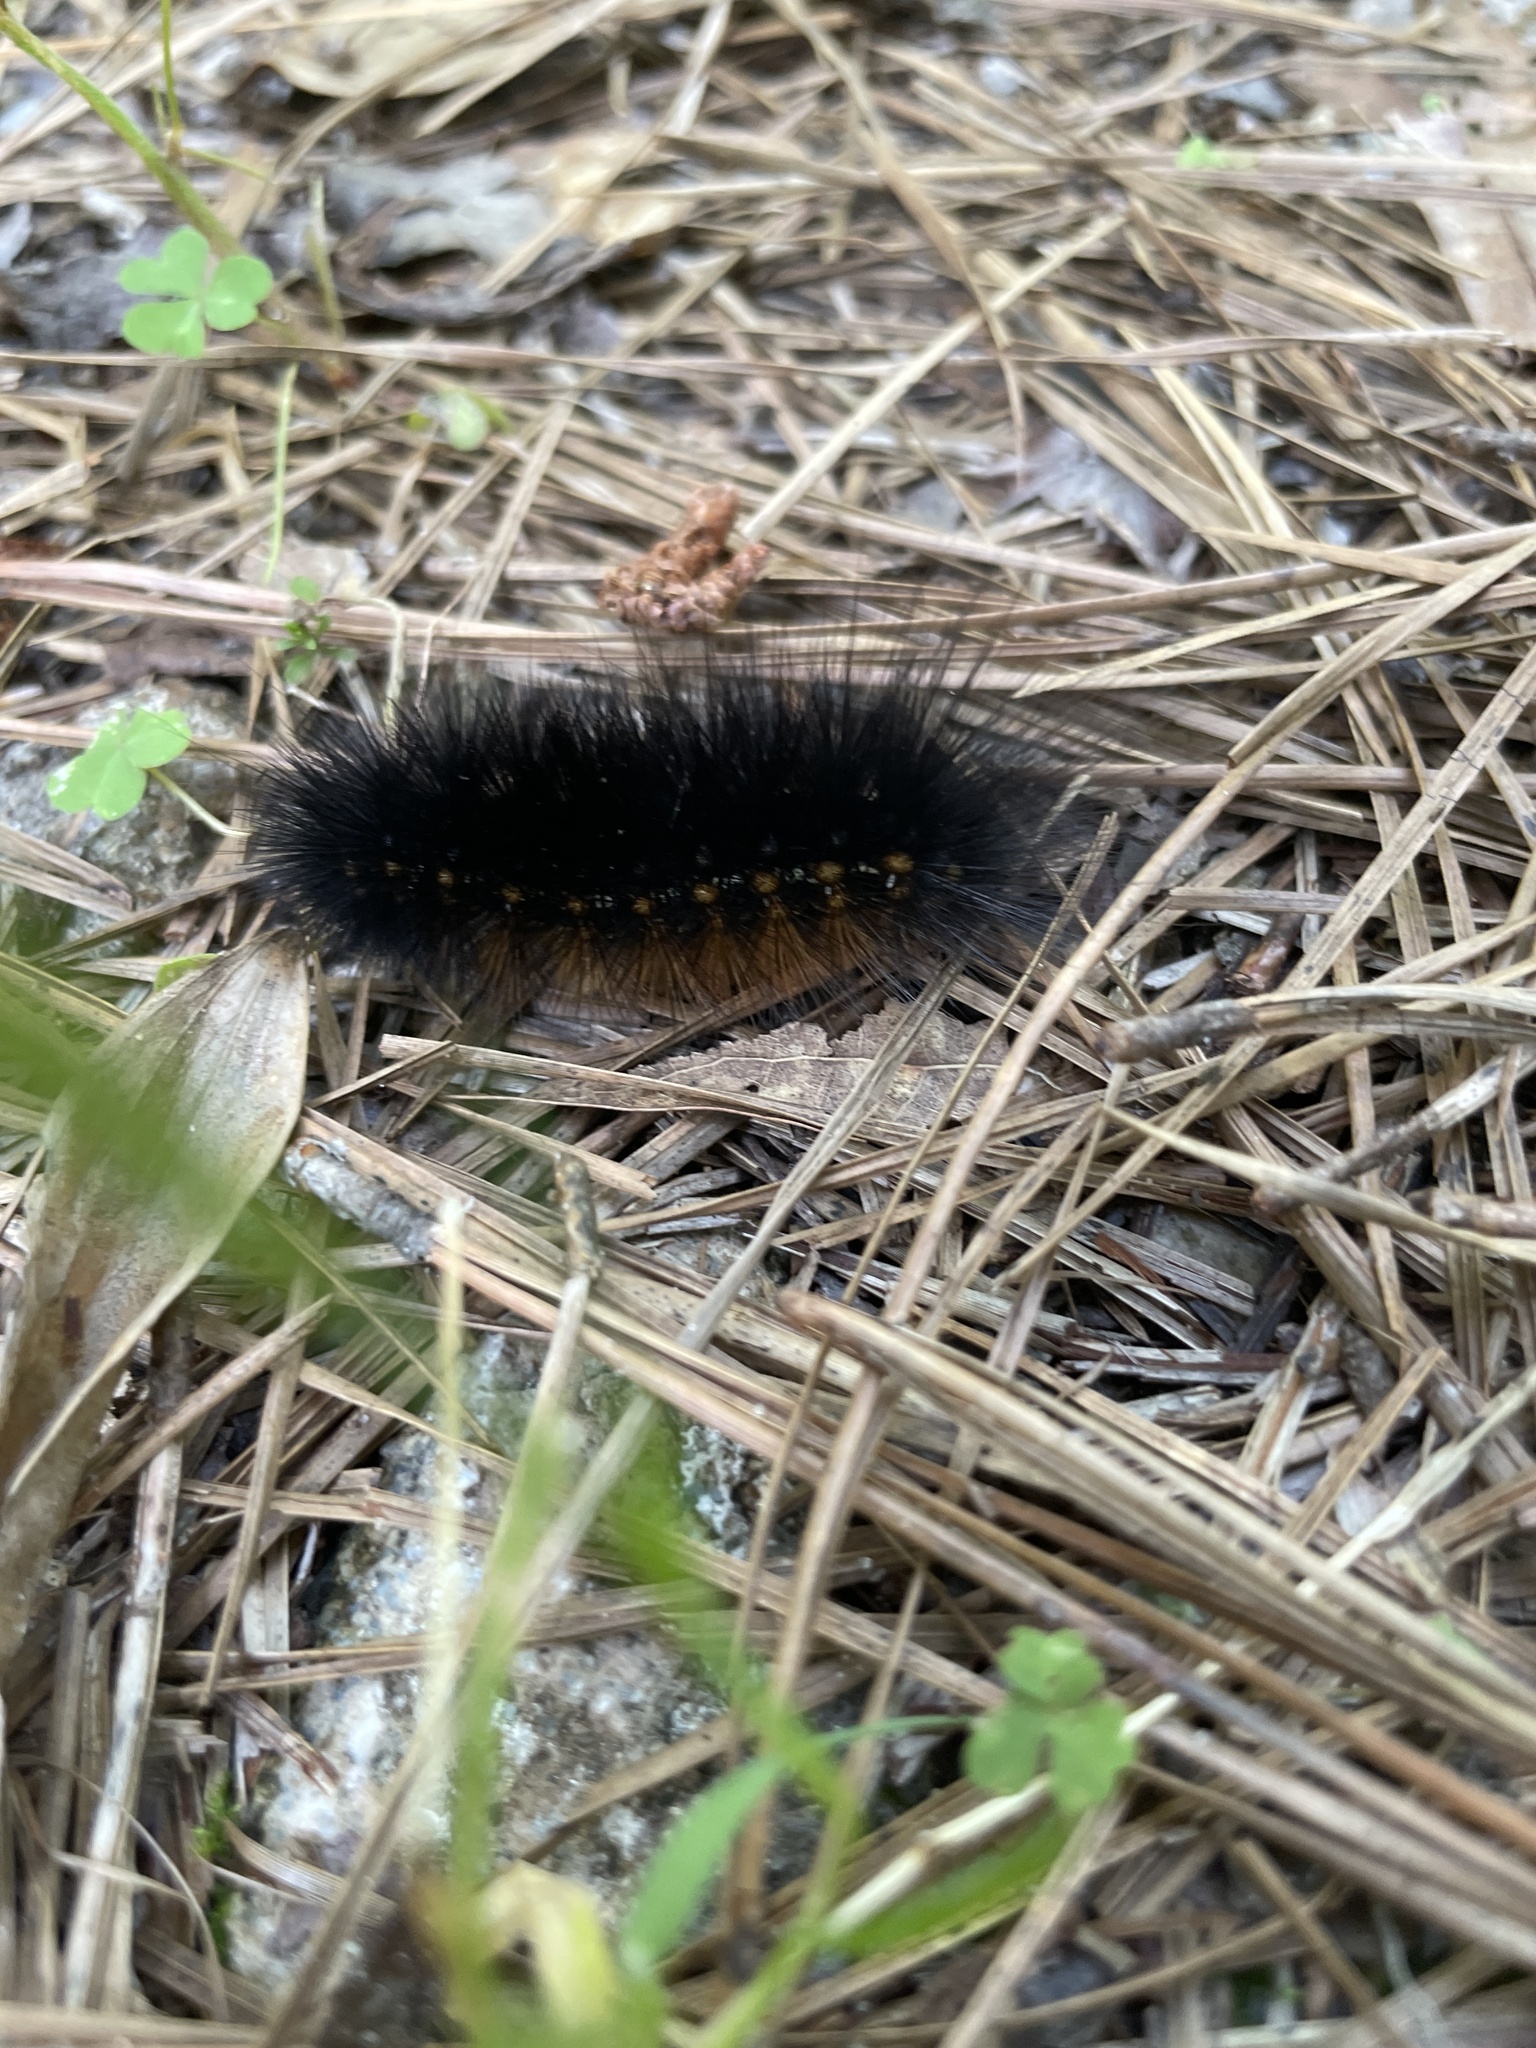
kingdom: Animalia
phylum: Arthropoda
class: Insecta
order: Lepidoptera
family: Erebidae
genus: Estigmene
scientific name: Estigmene acrea
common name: Salt marsh moth
